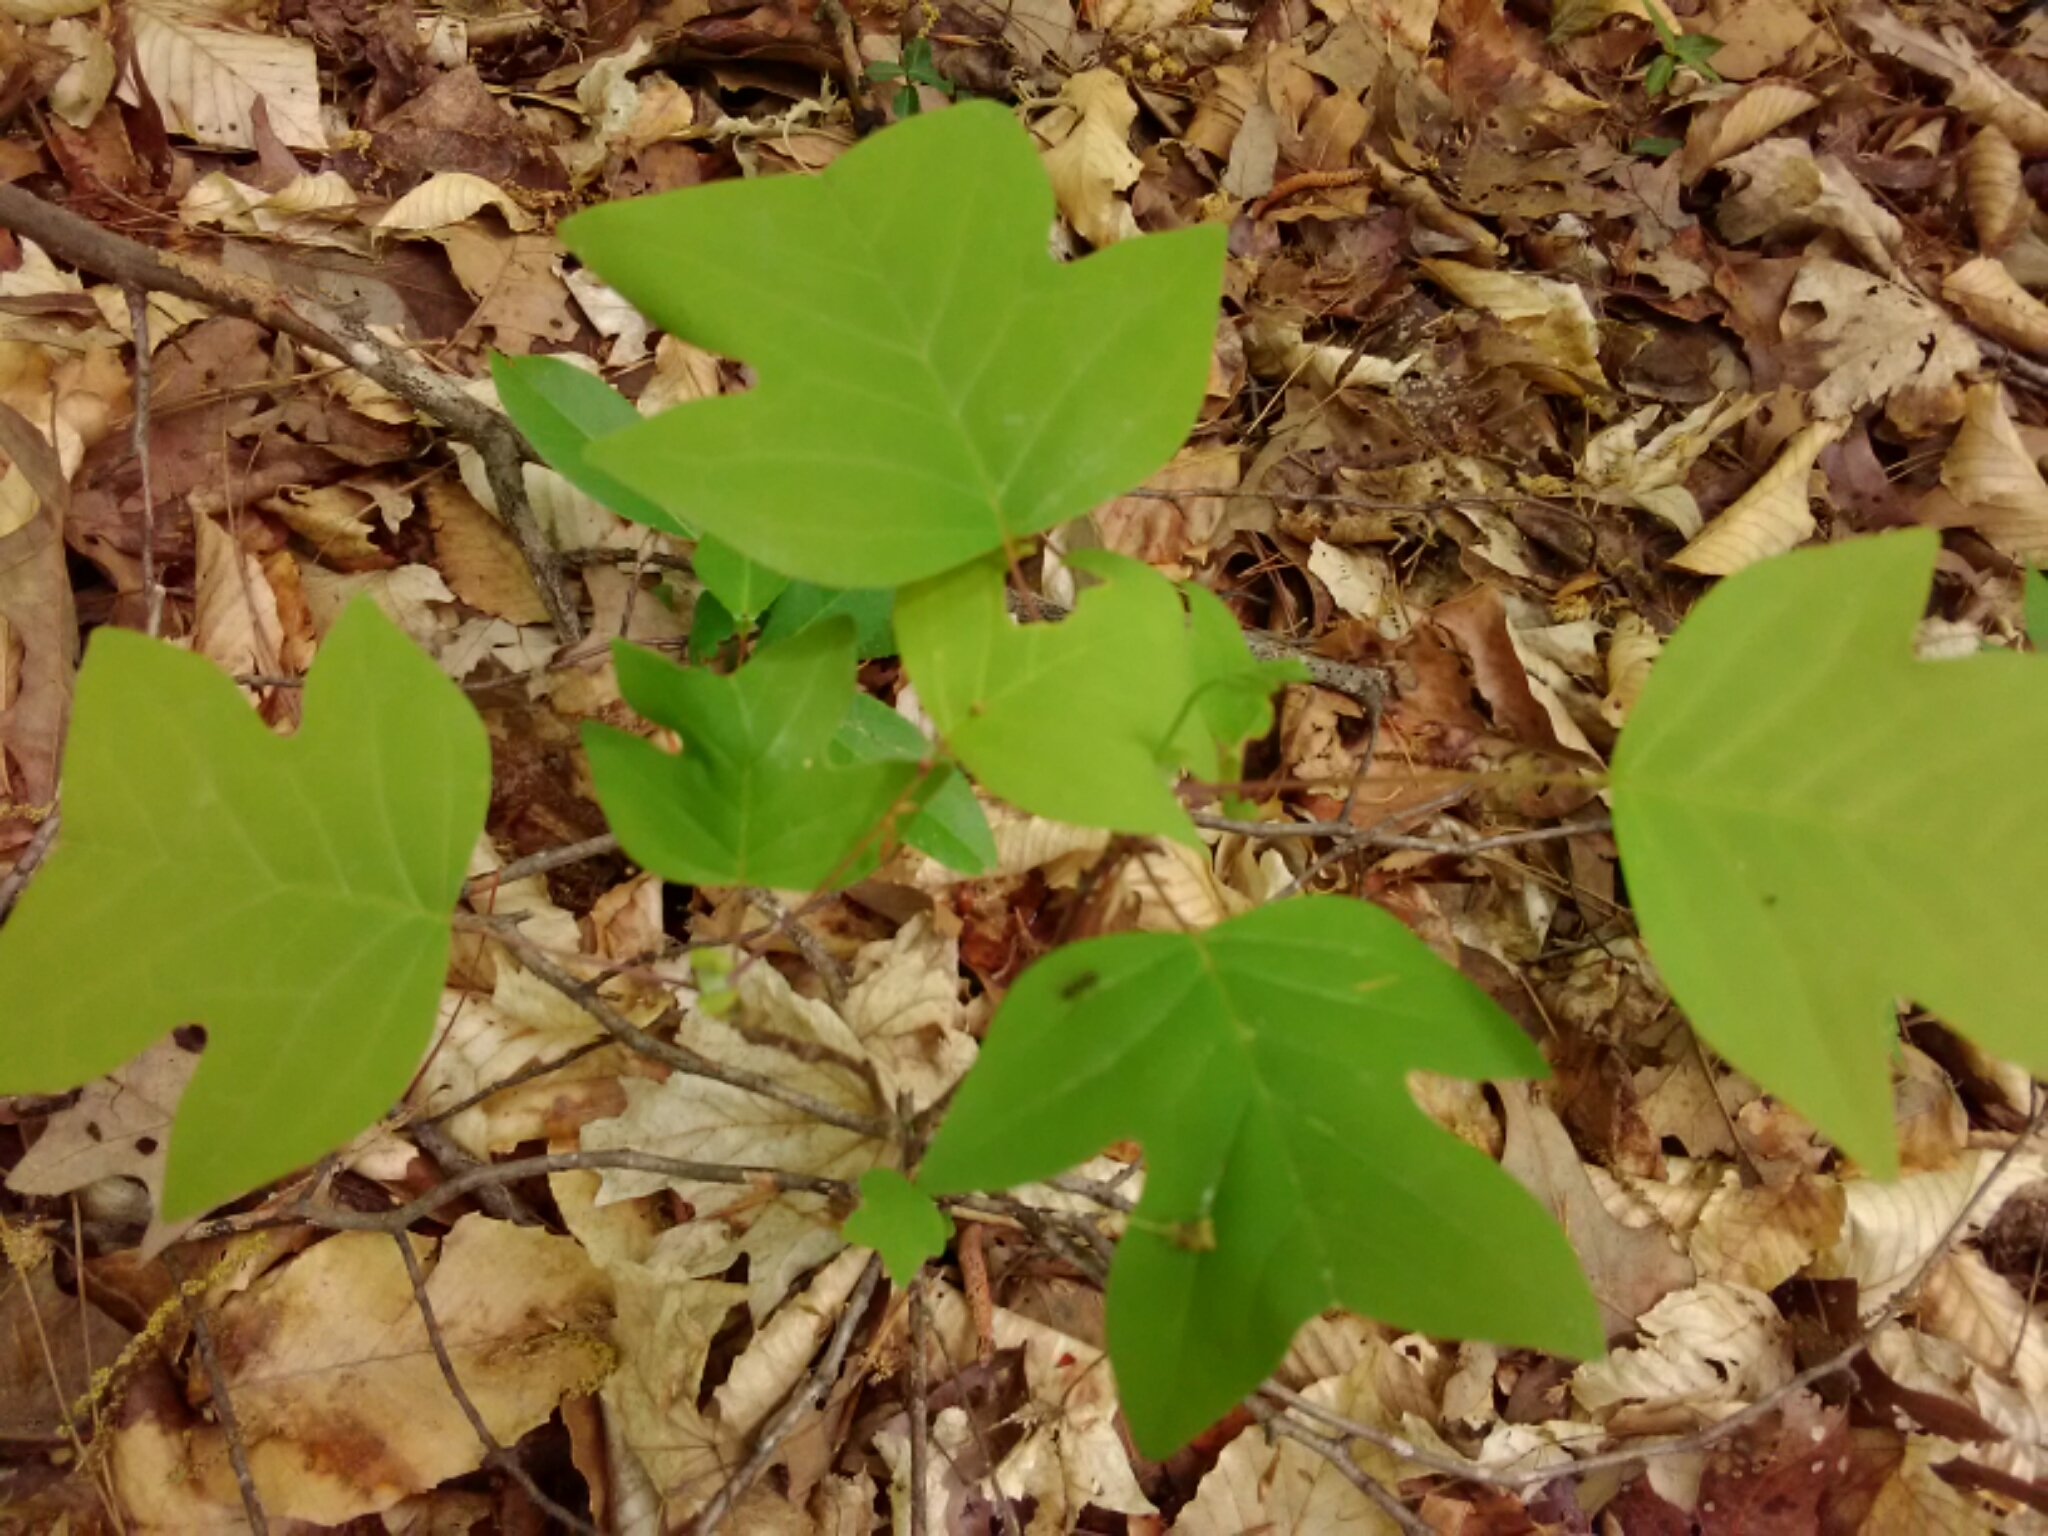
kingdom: Plantae
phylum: Tracheophyta
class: Magnoliopsida
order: Magnoliales
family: Magnoliaceae
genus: Liriodendron
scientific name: Liriodendron tulipifera
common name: Tulip tree
